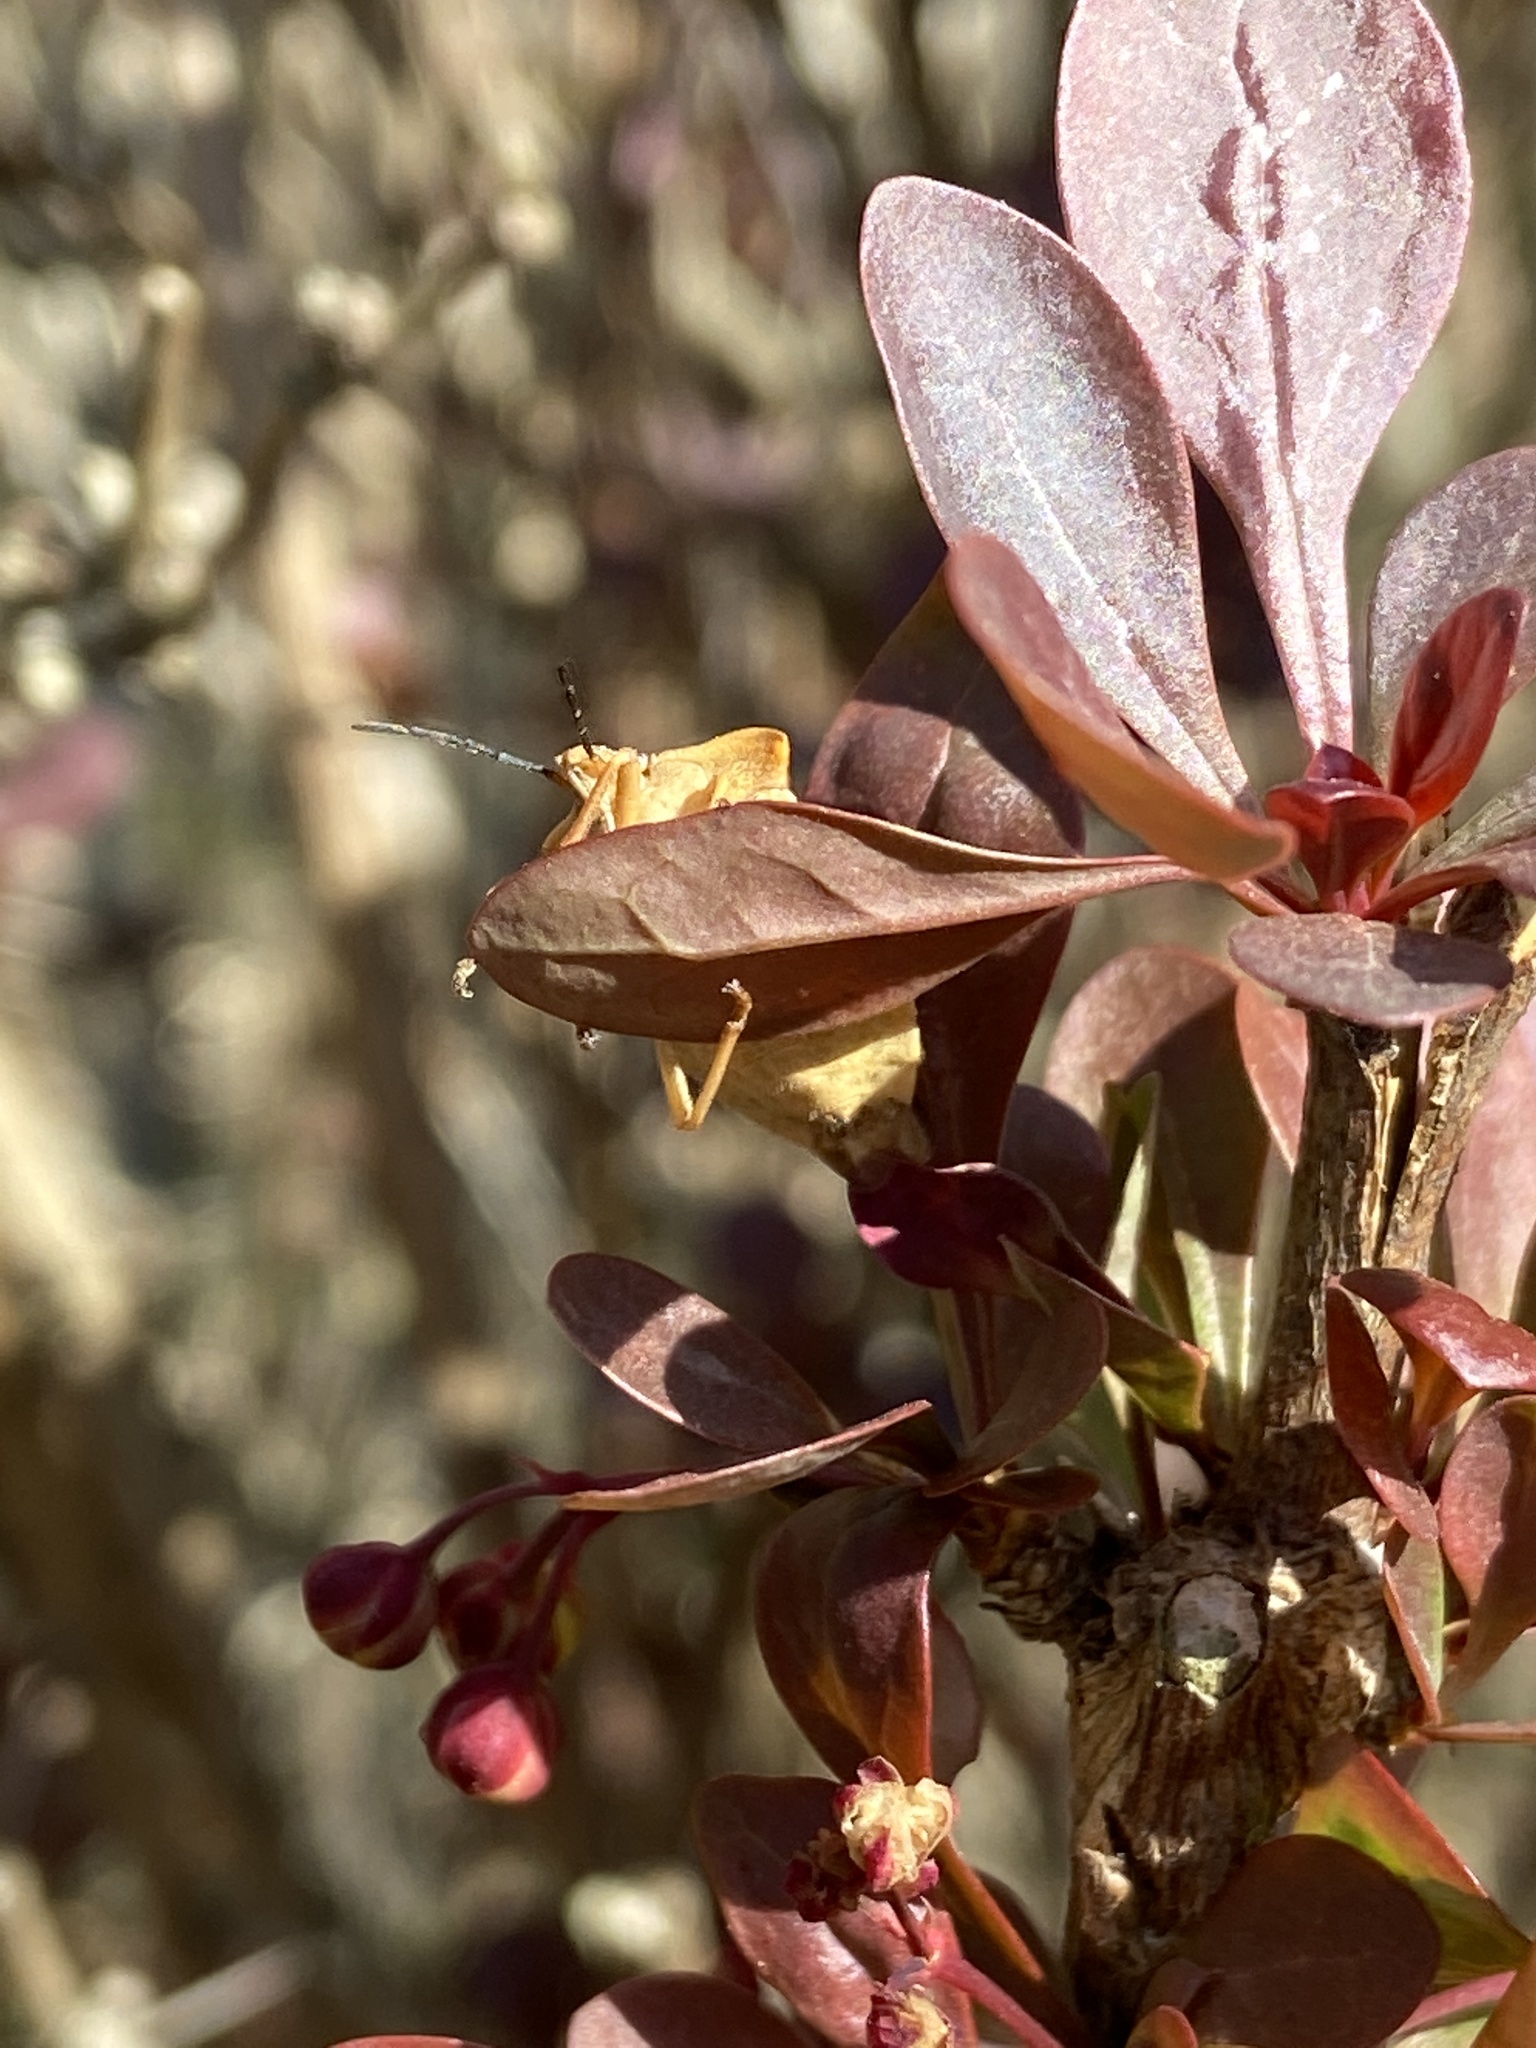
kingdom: Animalia
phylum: Arthropoda
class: Insecta
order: Hemiptera
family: Pentatomidae
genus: Carpocoris
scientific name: Carpocoris fuscispinus
